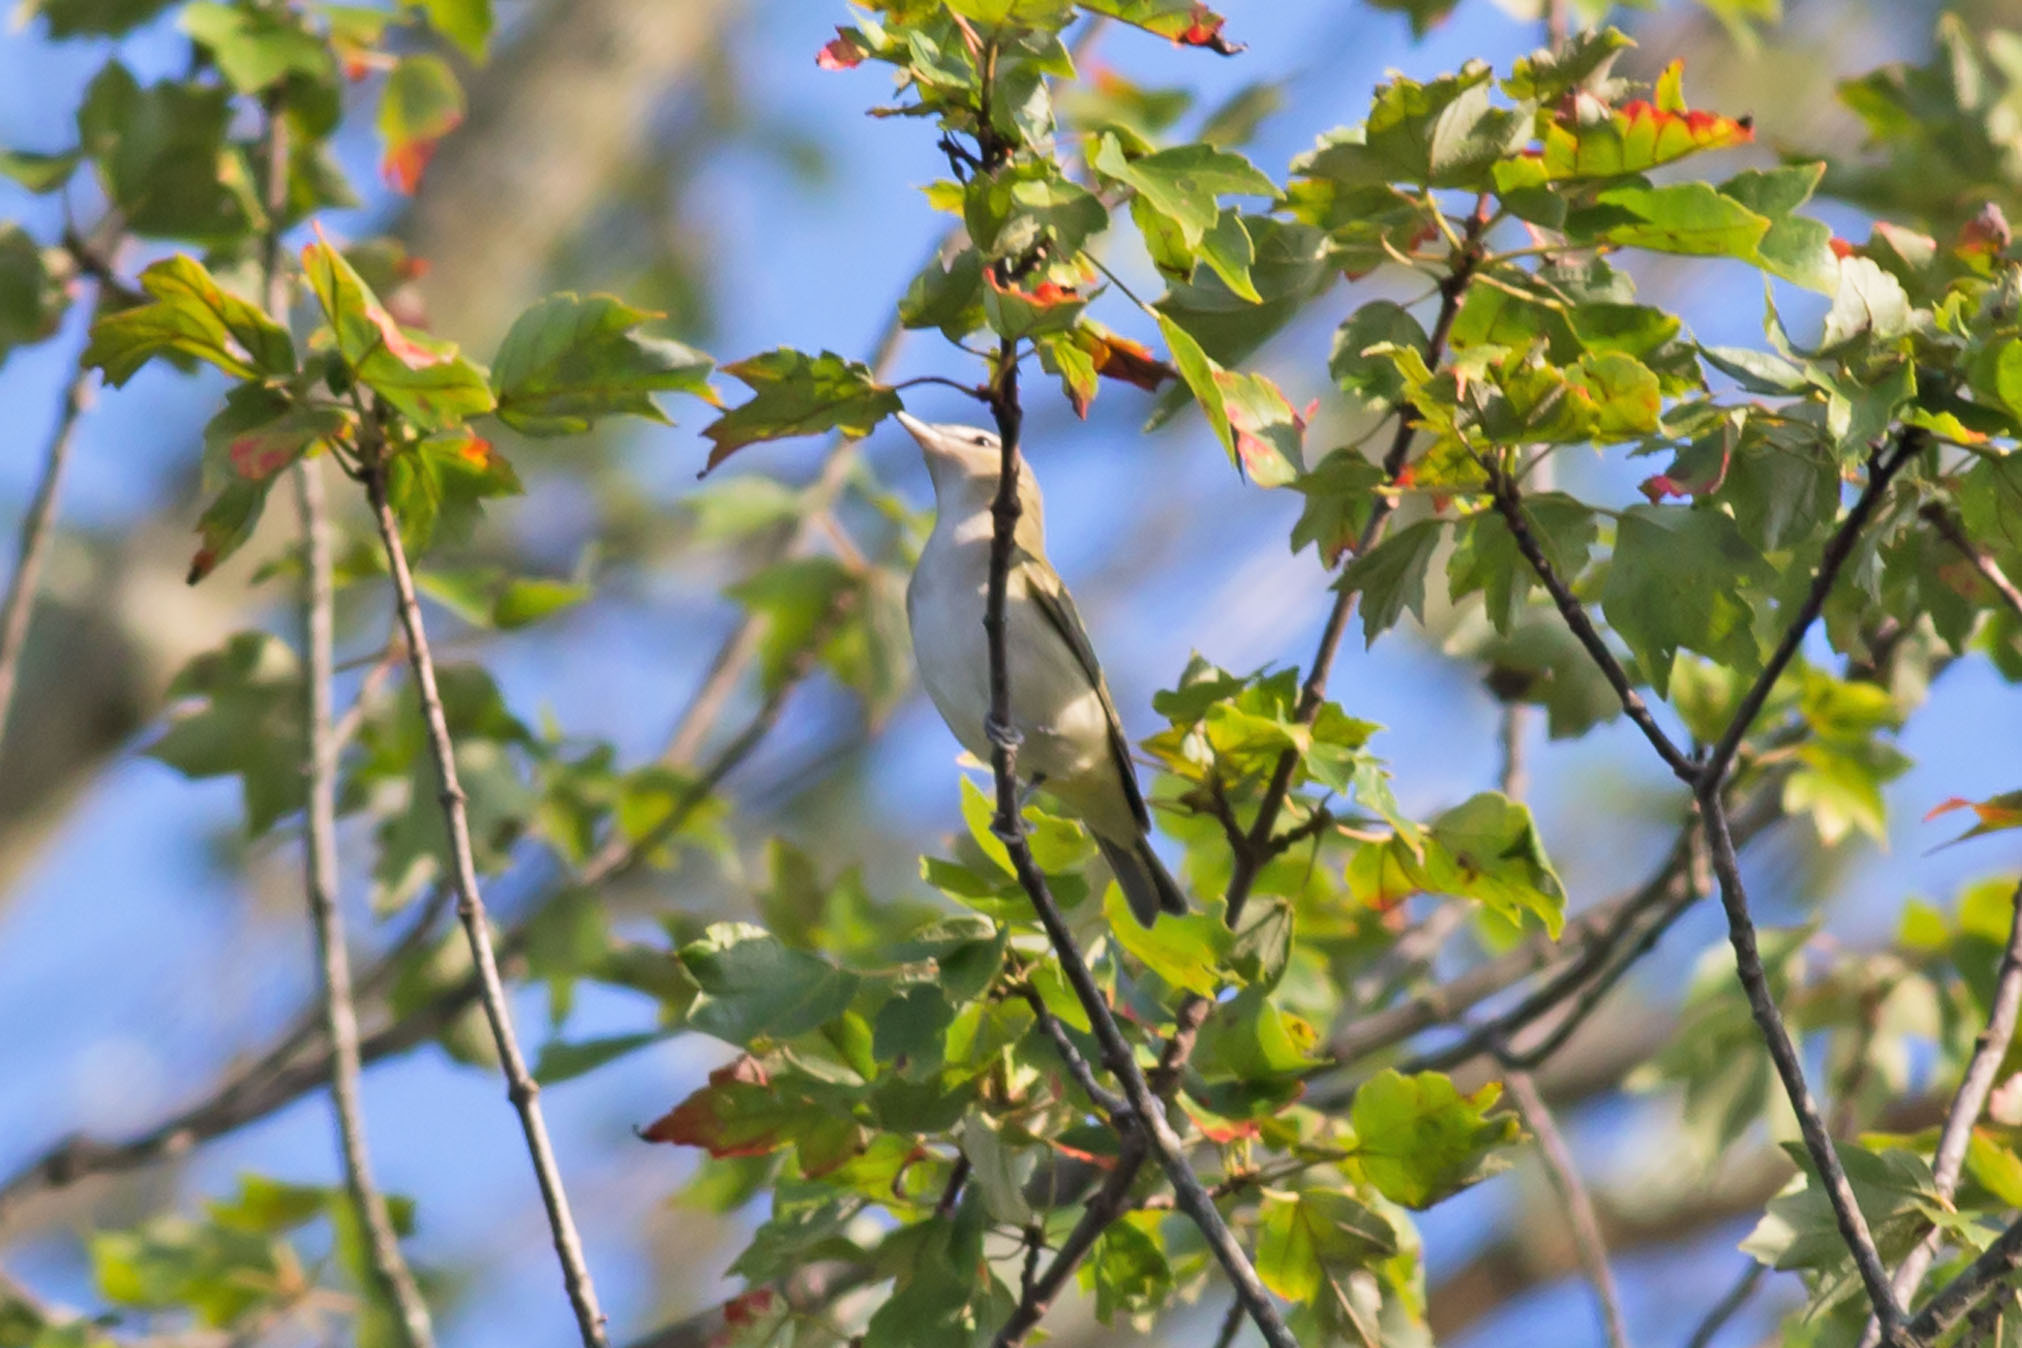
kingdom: Animalia
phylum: Chordata
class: Aves
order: Passeriformes
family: Vireonidae
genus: Vireo
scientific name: Vireo olivaceus
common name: Red-eyed vireo
